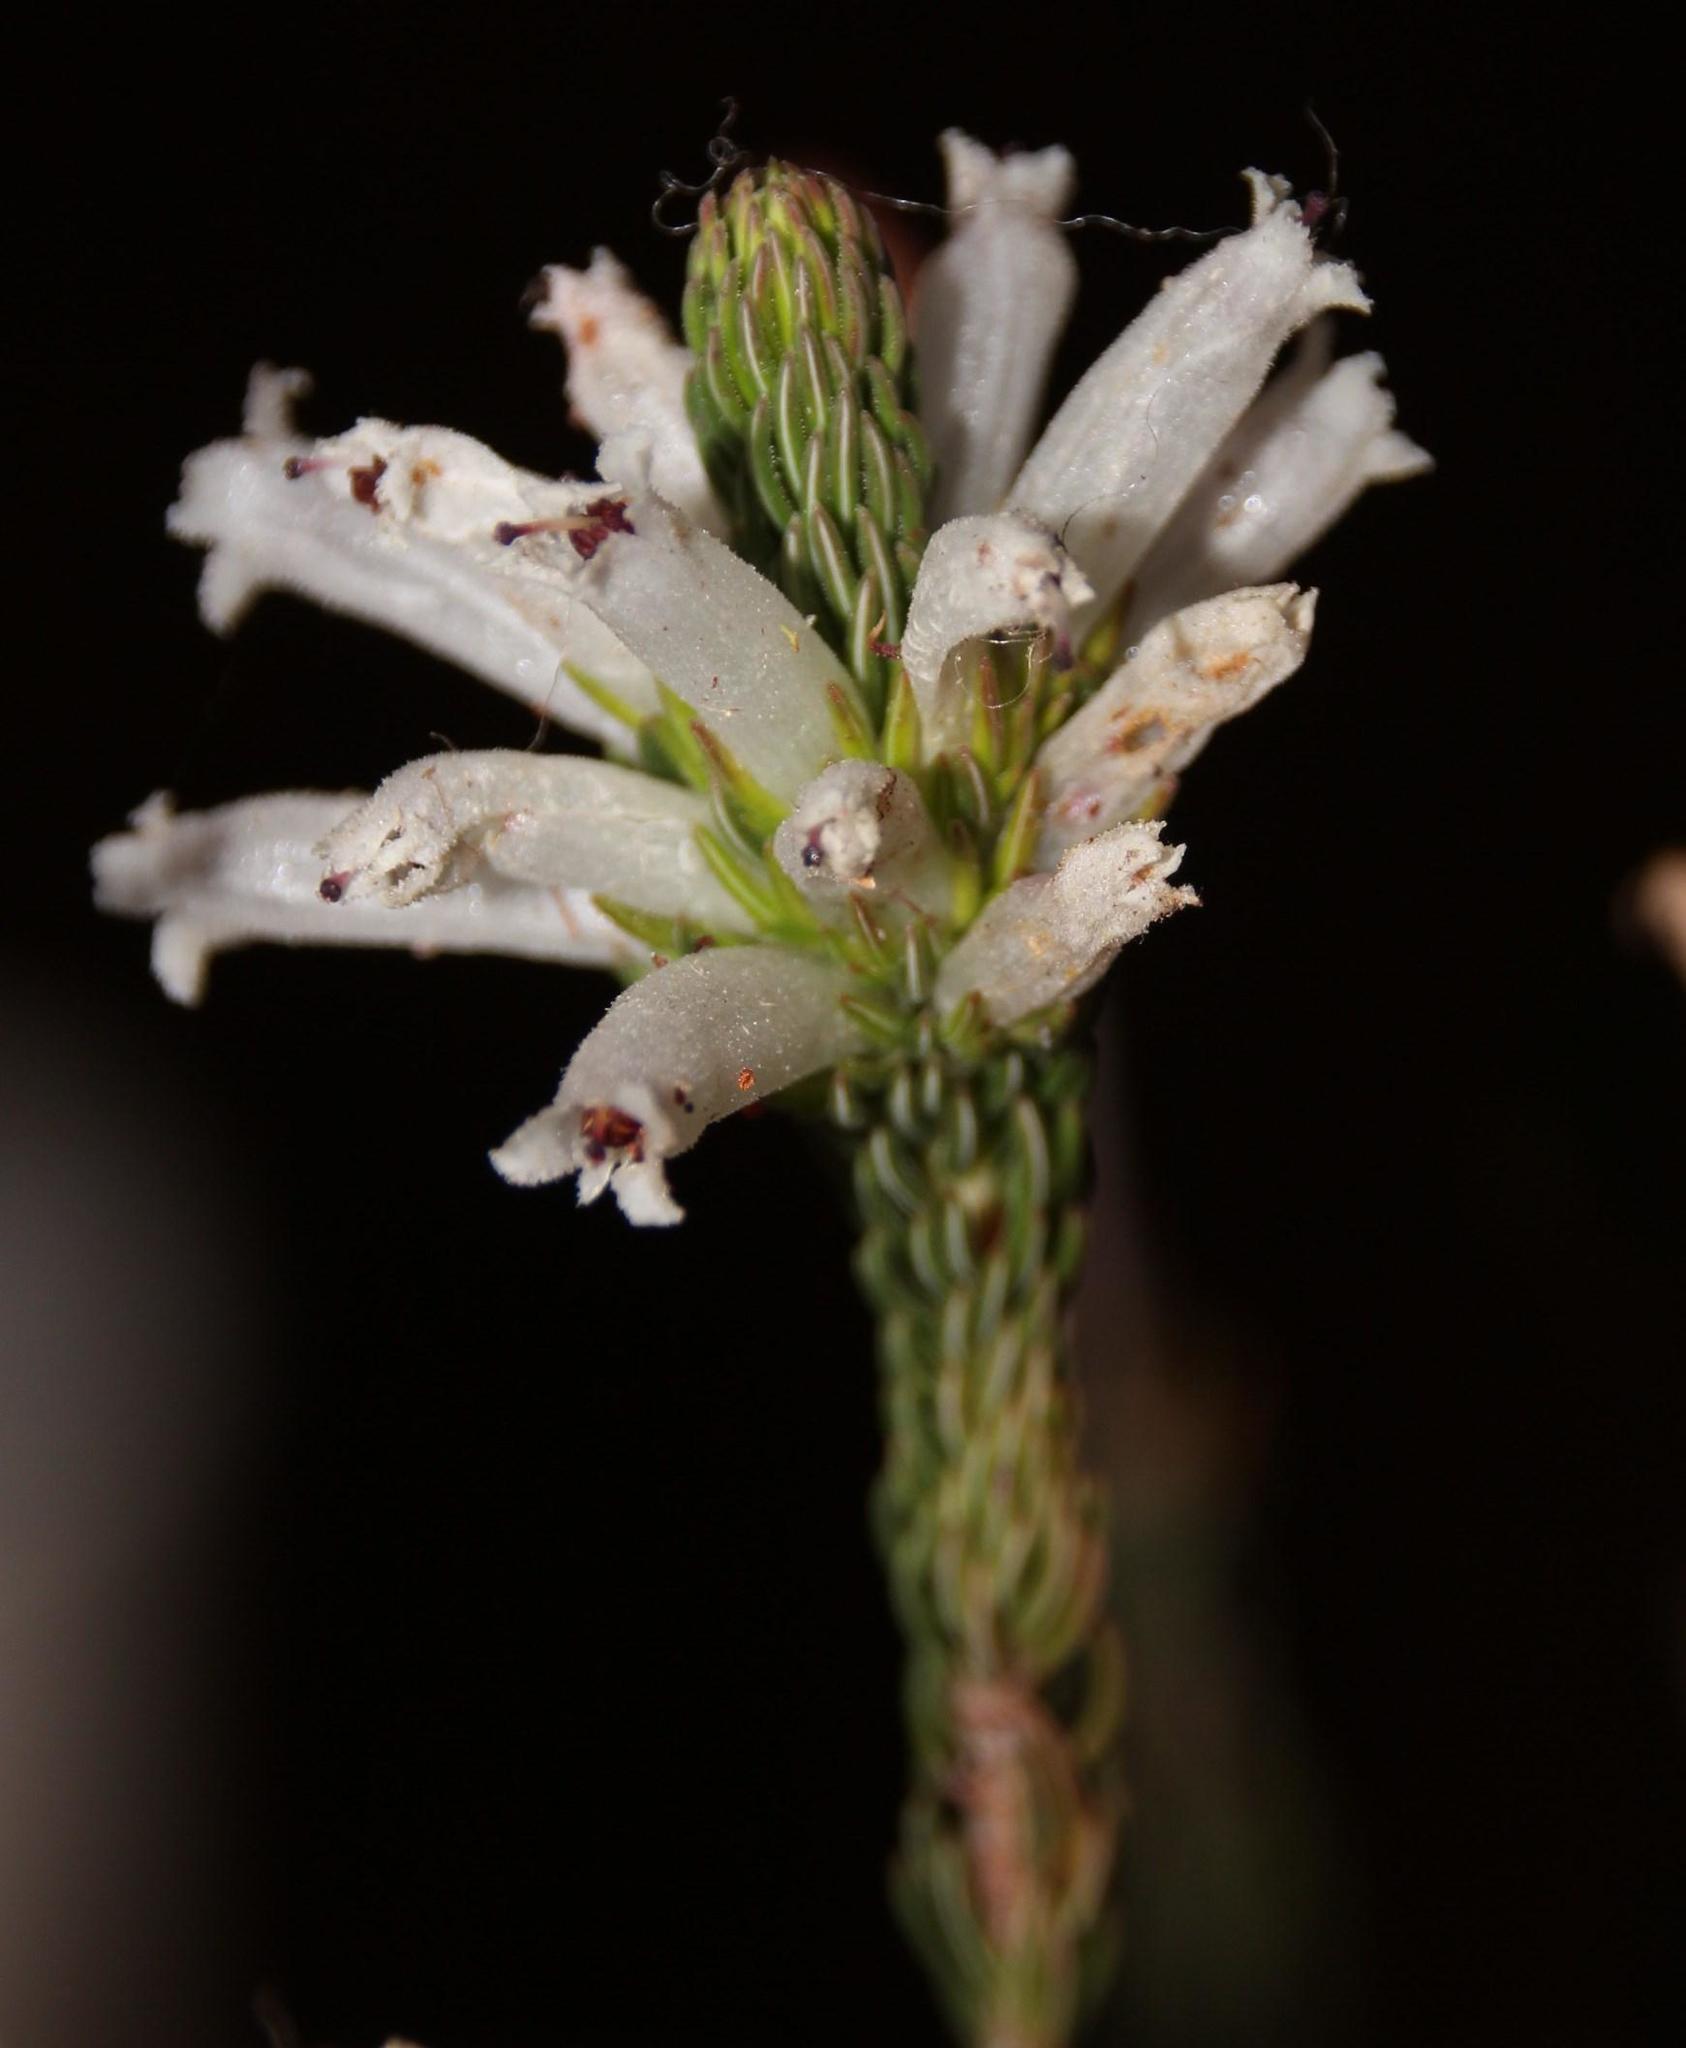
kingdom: Plantae
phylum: Tracheophyta
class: Magnoliopsida
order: Ericales
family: Ericaceae
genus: Erica
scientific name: Erica viscaria
